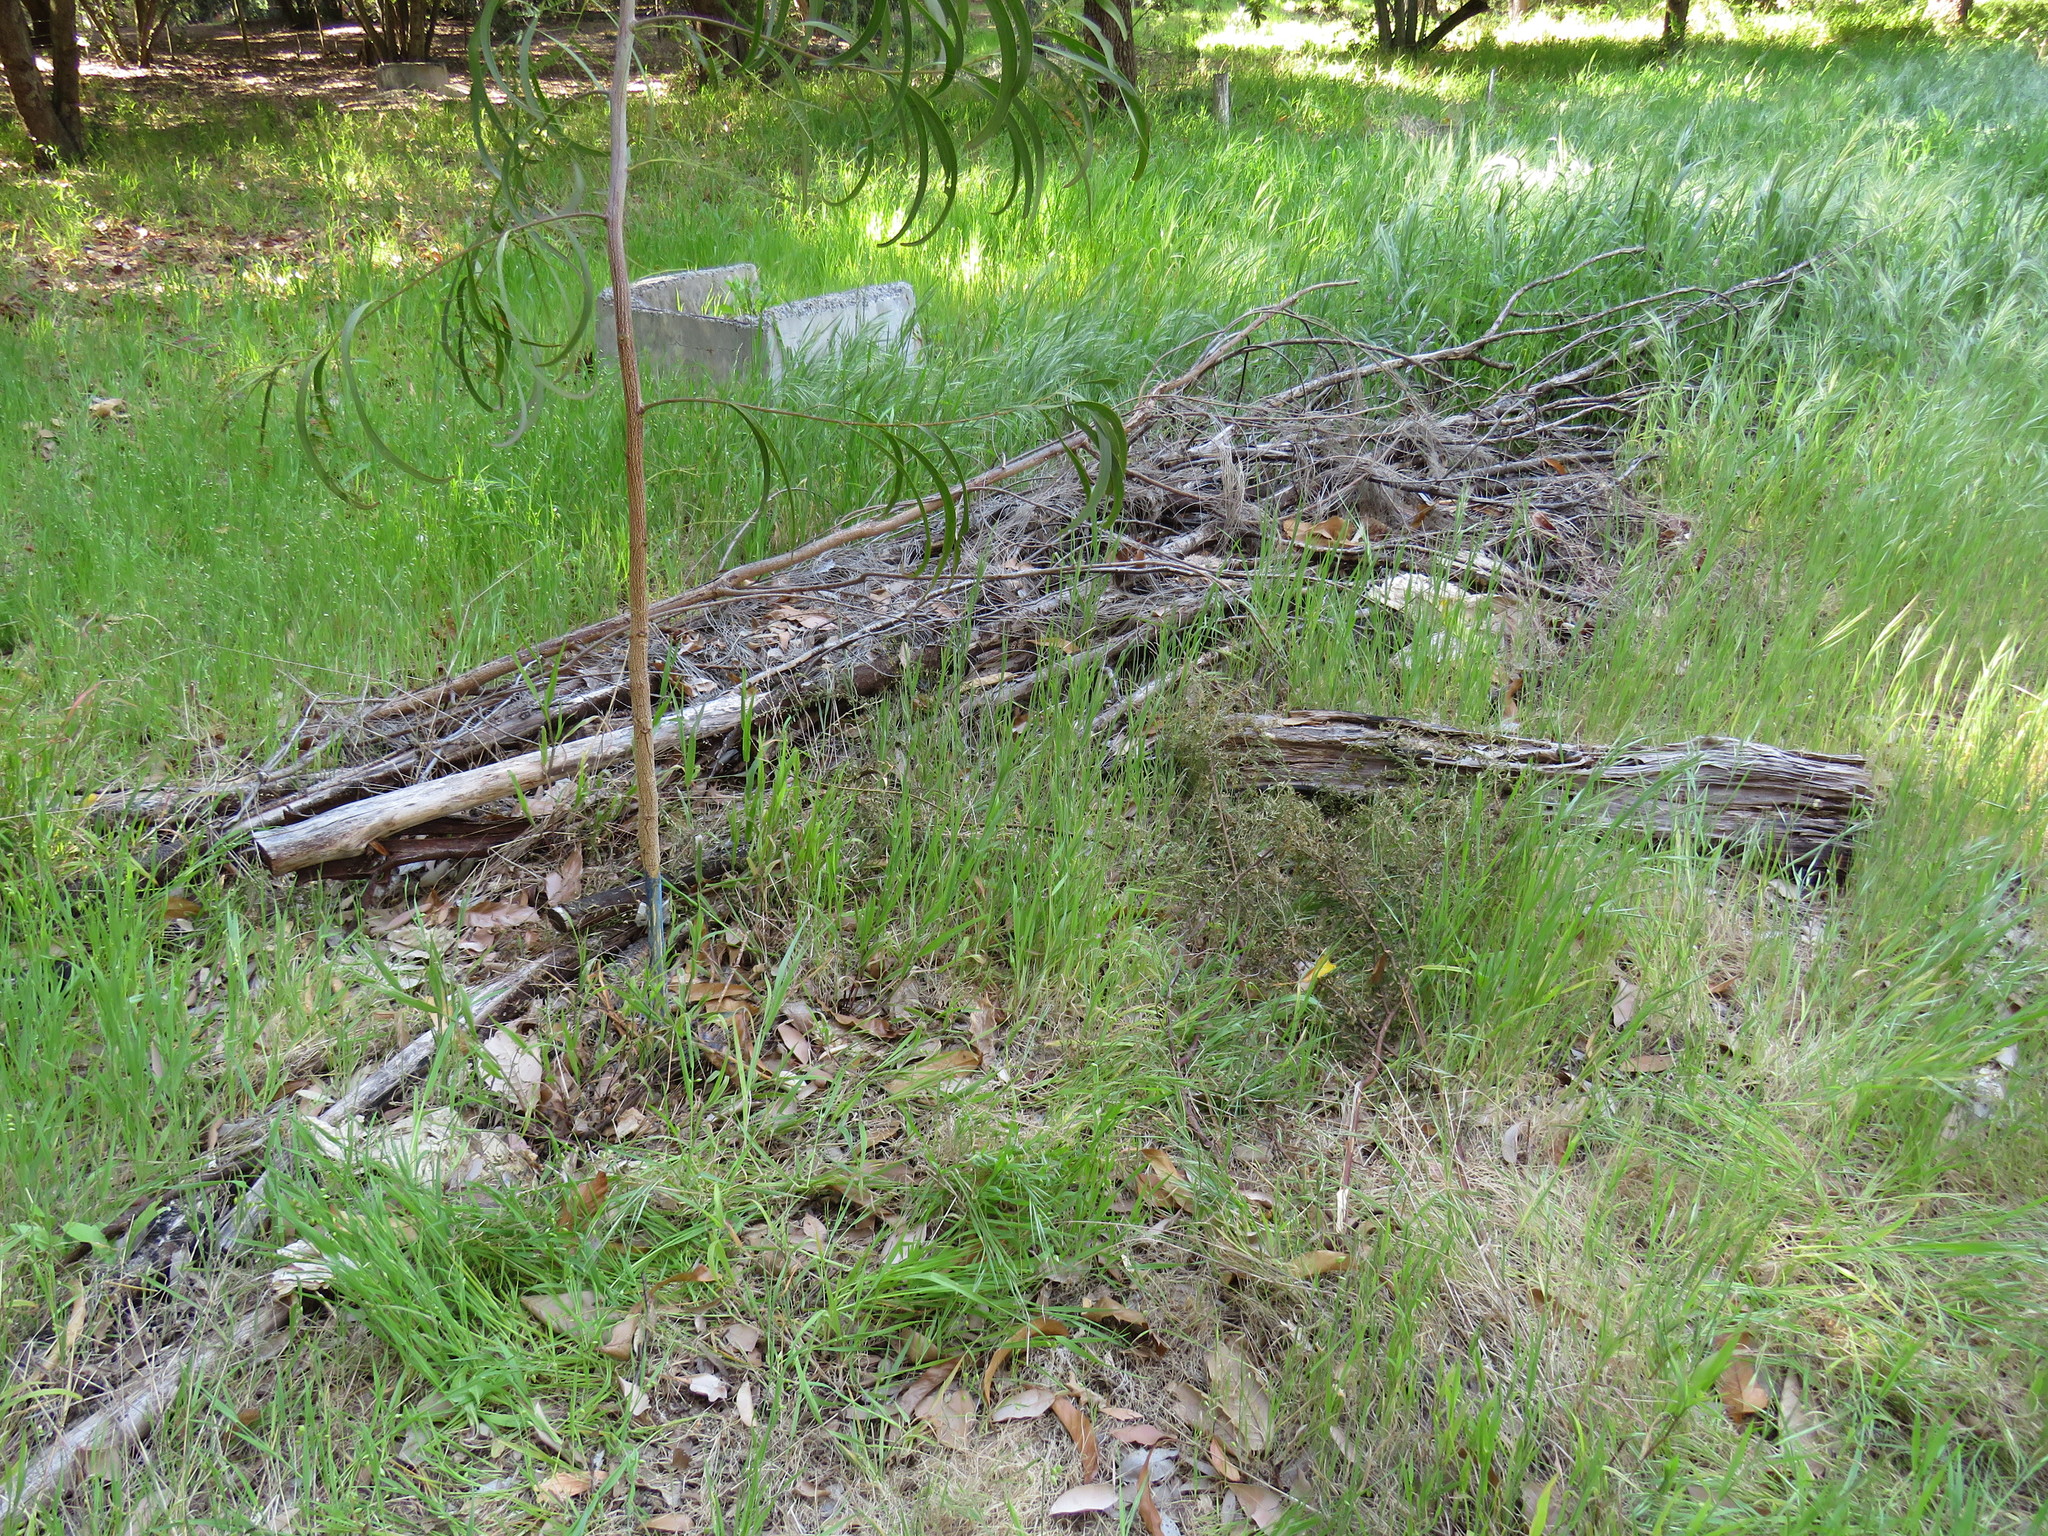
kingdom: Plantae
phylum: Tracheophyta
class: Magnoliopsida
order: Fabales
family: Fabaceae
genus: Acacia
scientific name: Acacia acinacea
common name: Gold-dust acacia
